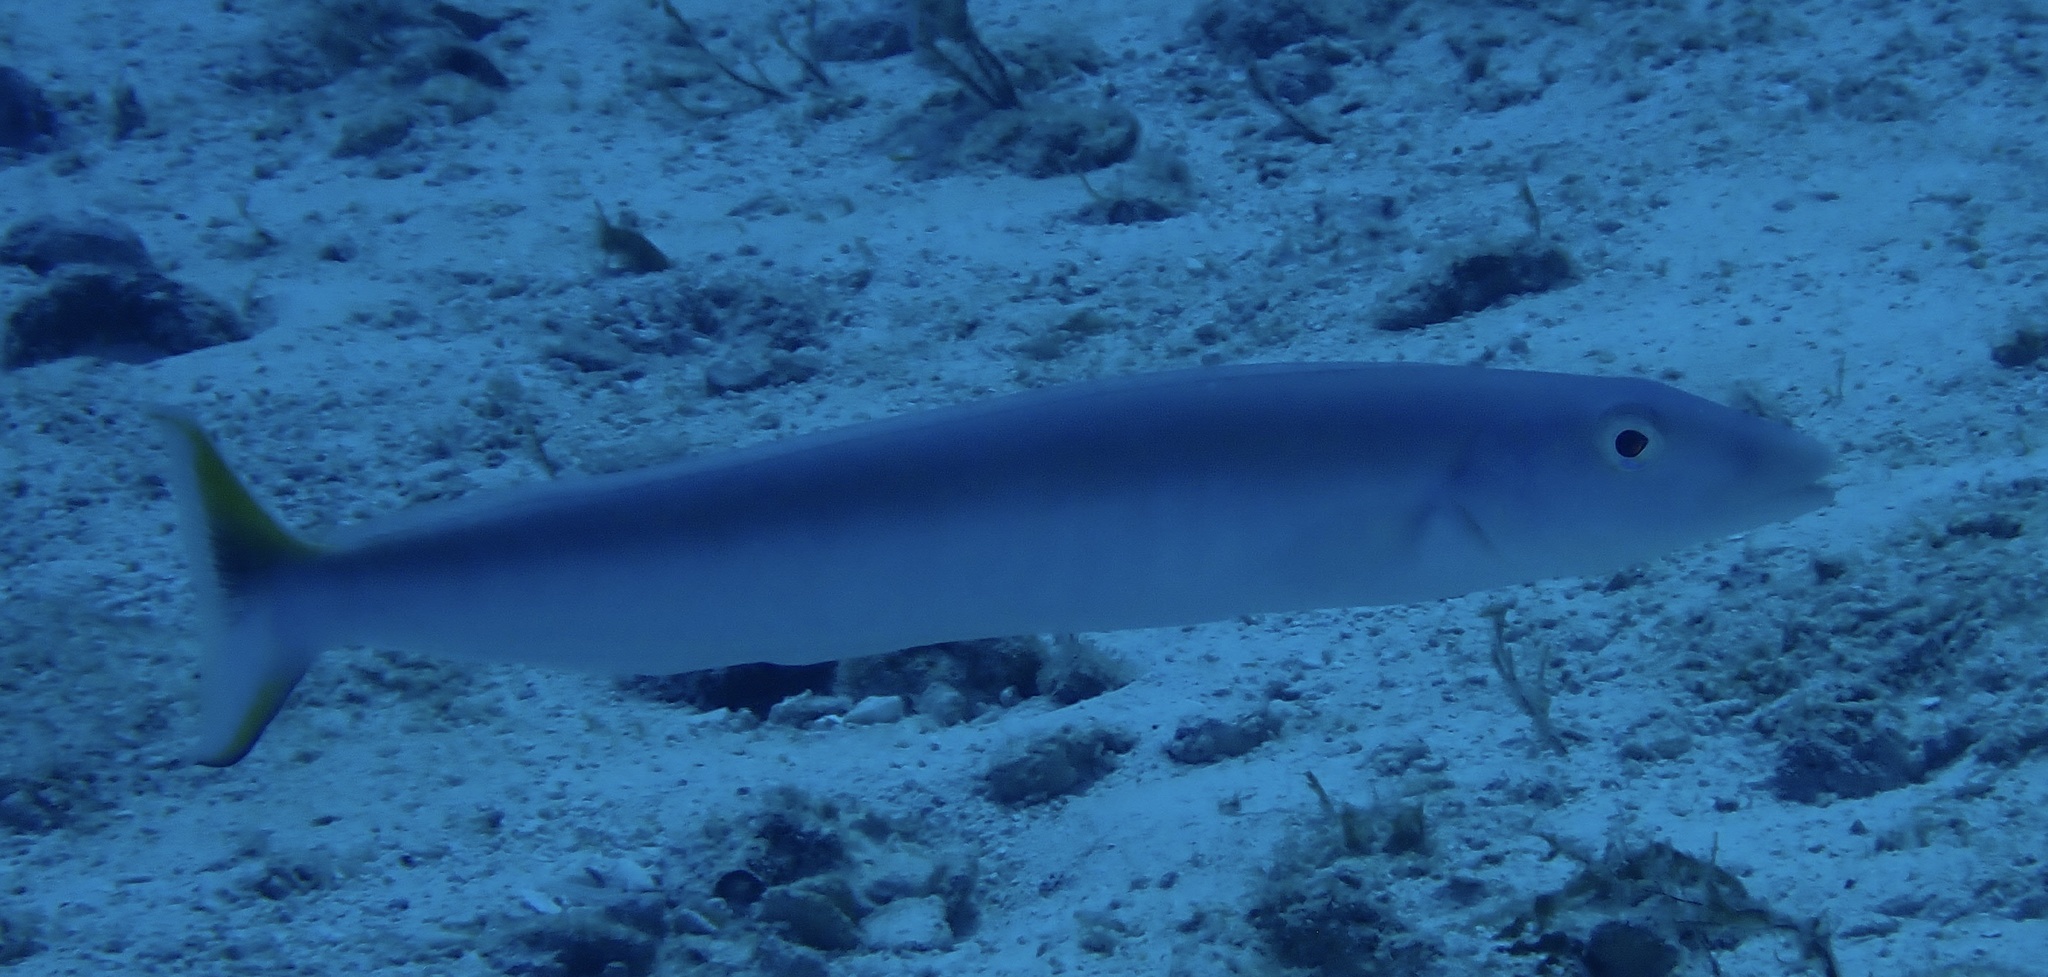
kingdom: Animalia
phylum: Chordata
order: Perciformes
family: Malacanthidae
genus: Malacanthus
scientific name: Malacanthus plumieri
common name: Sand tilefish
